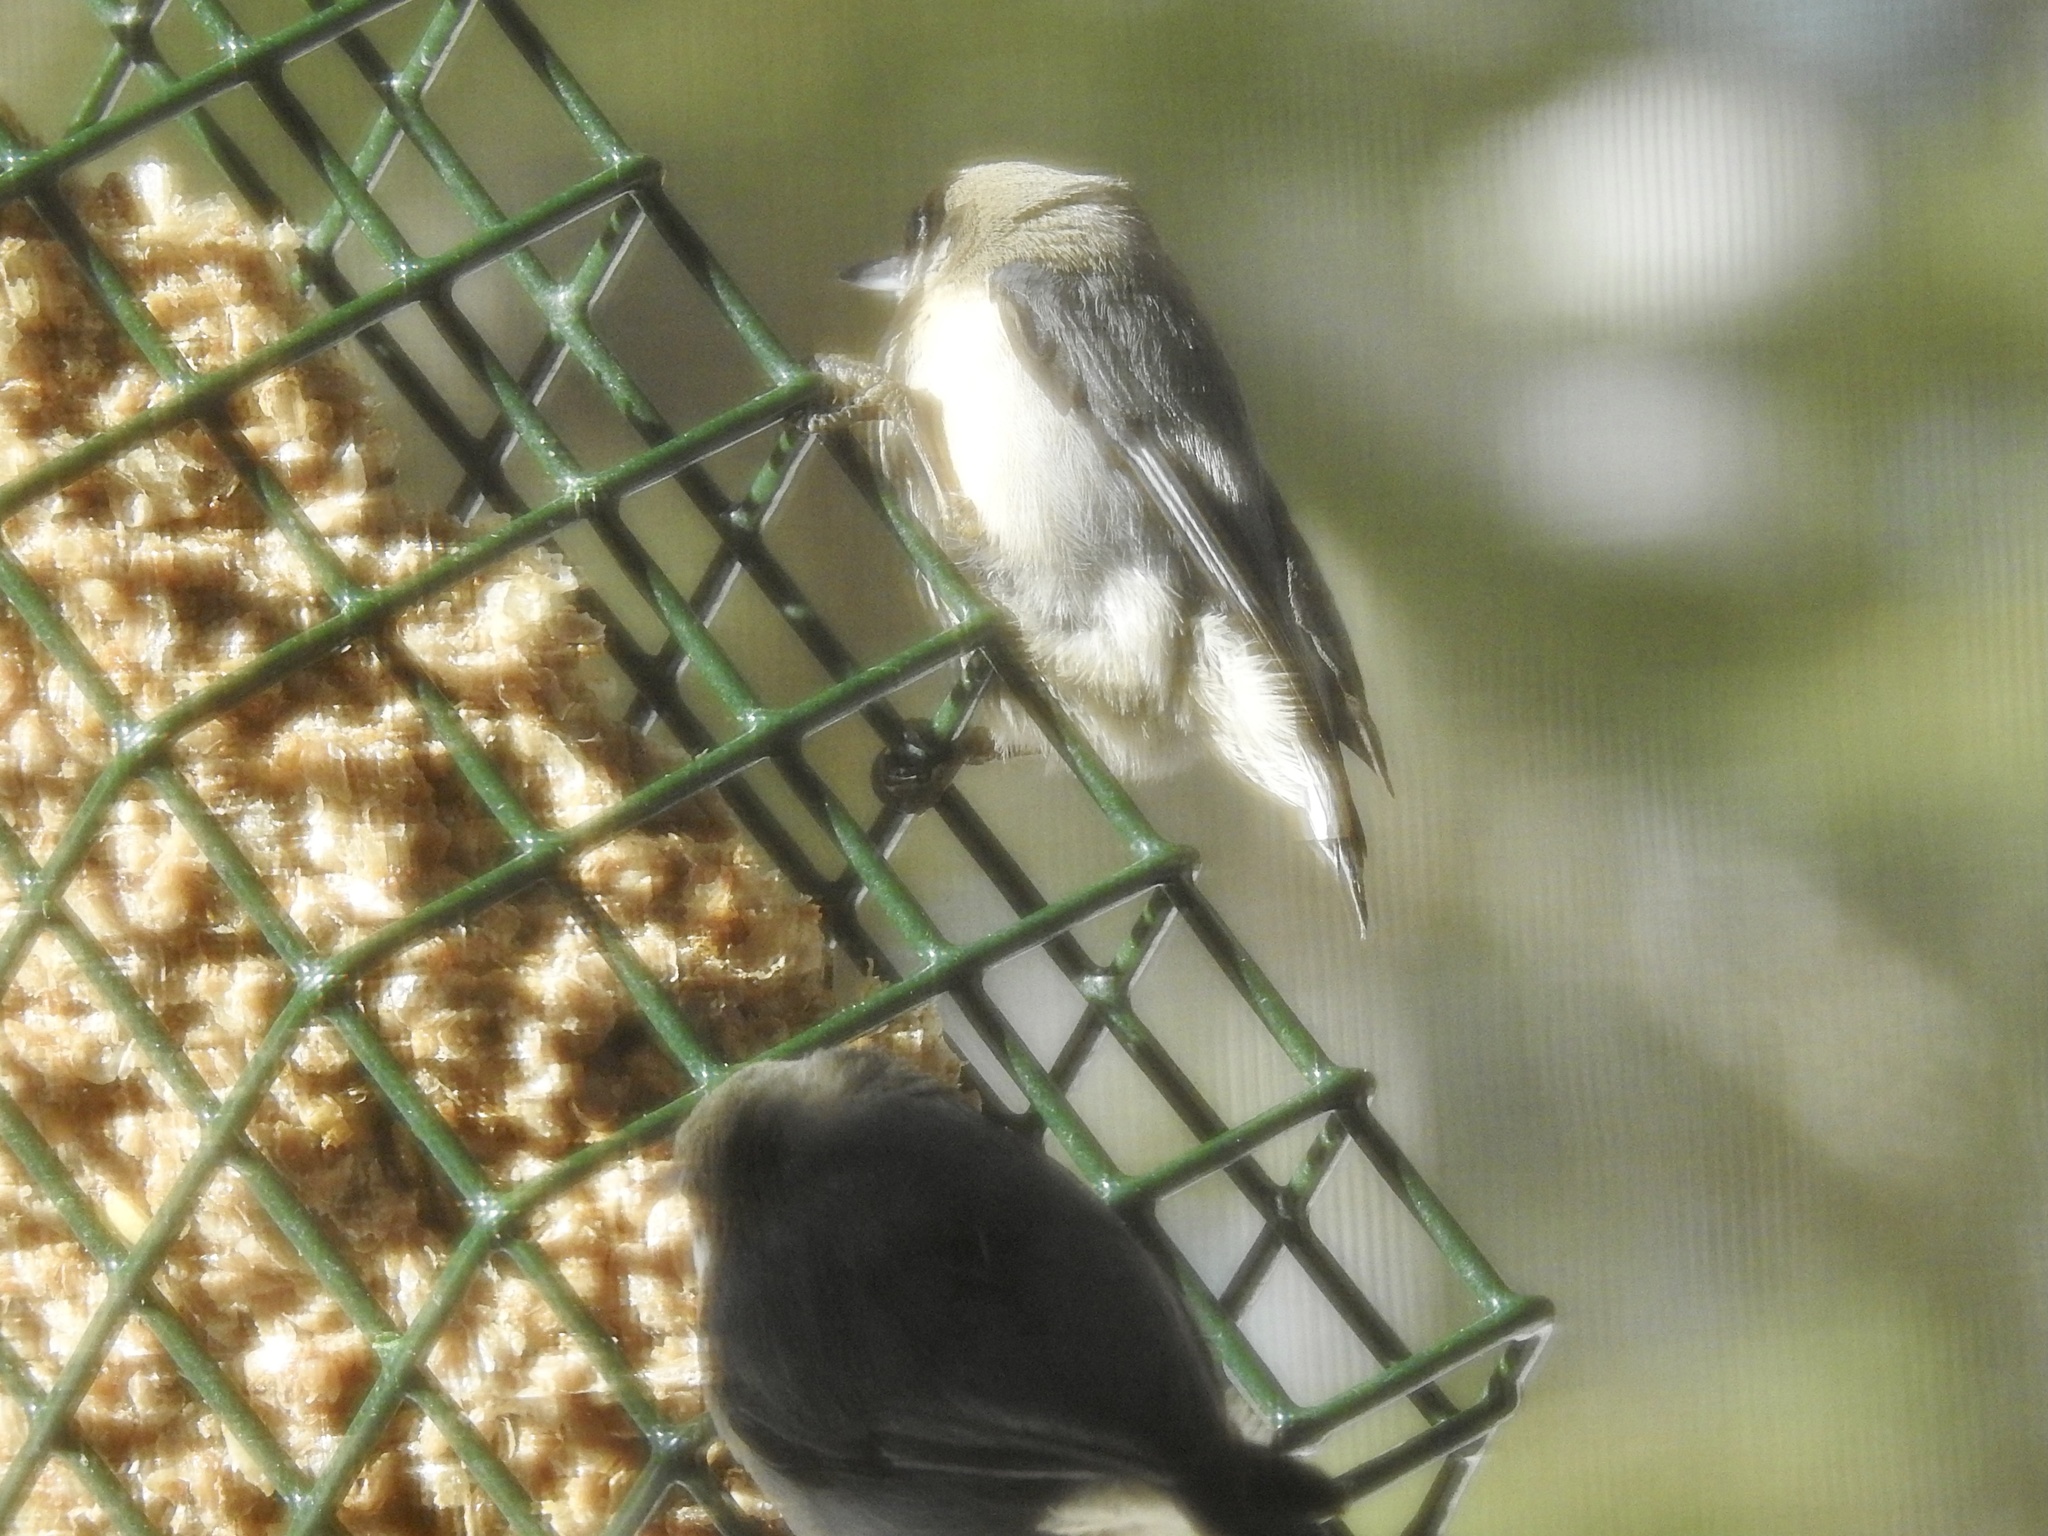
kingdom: Animalia
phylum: Chordata
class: Aves
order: Passeriformes
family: Sittidae
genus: Sitta
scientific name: Sitta pygmaea
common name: Pygmy nuthatch
